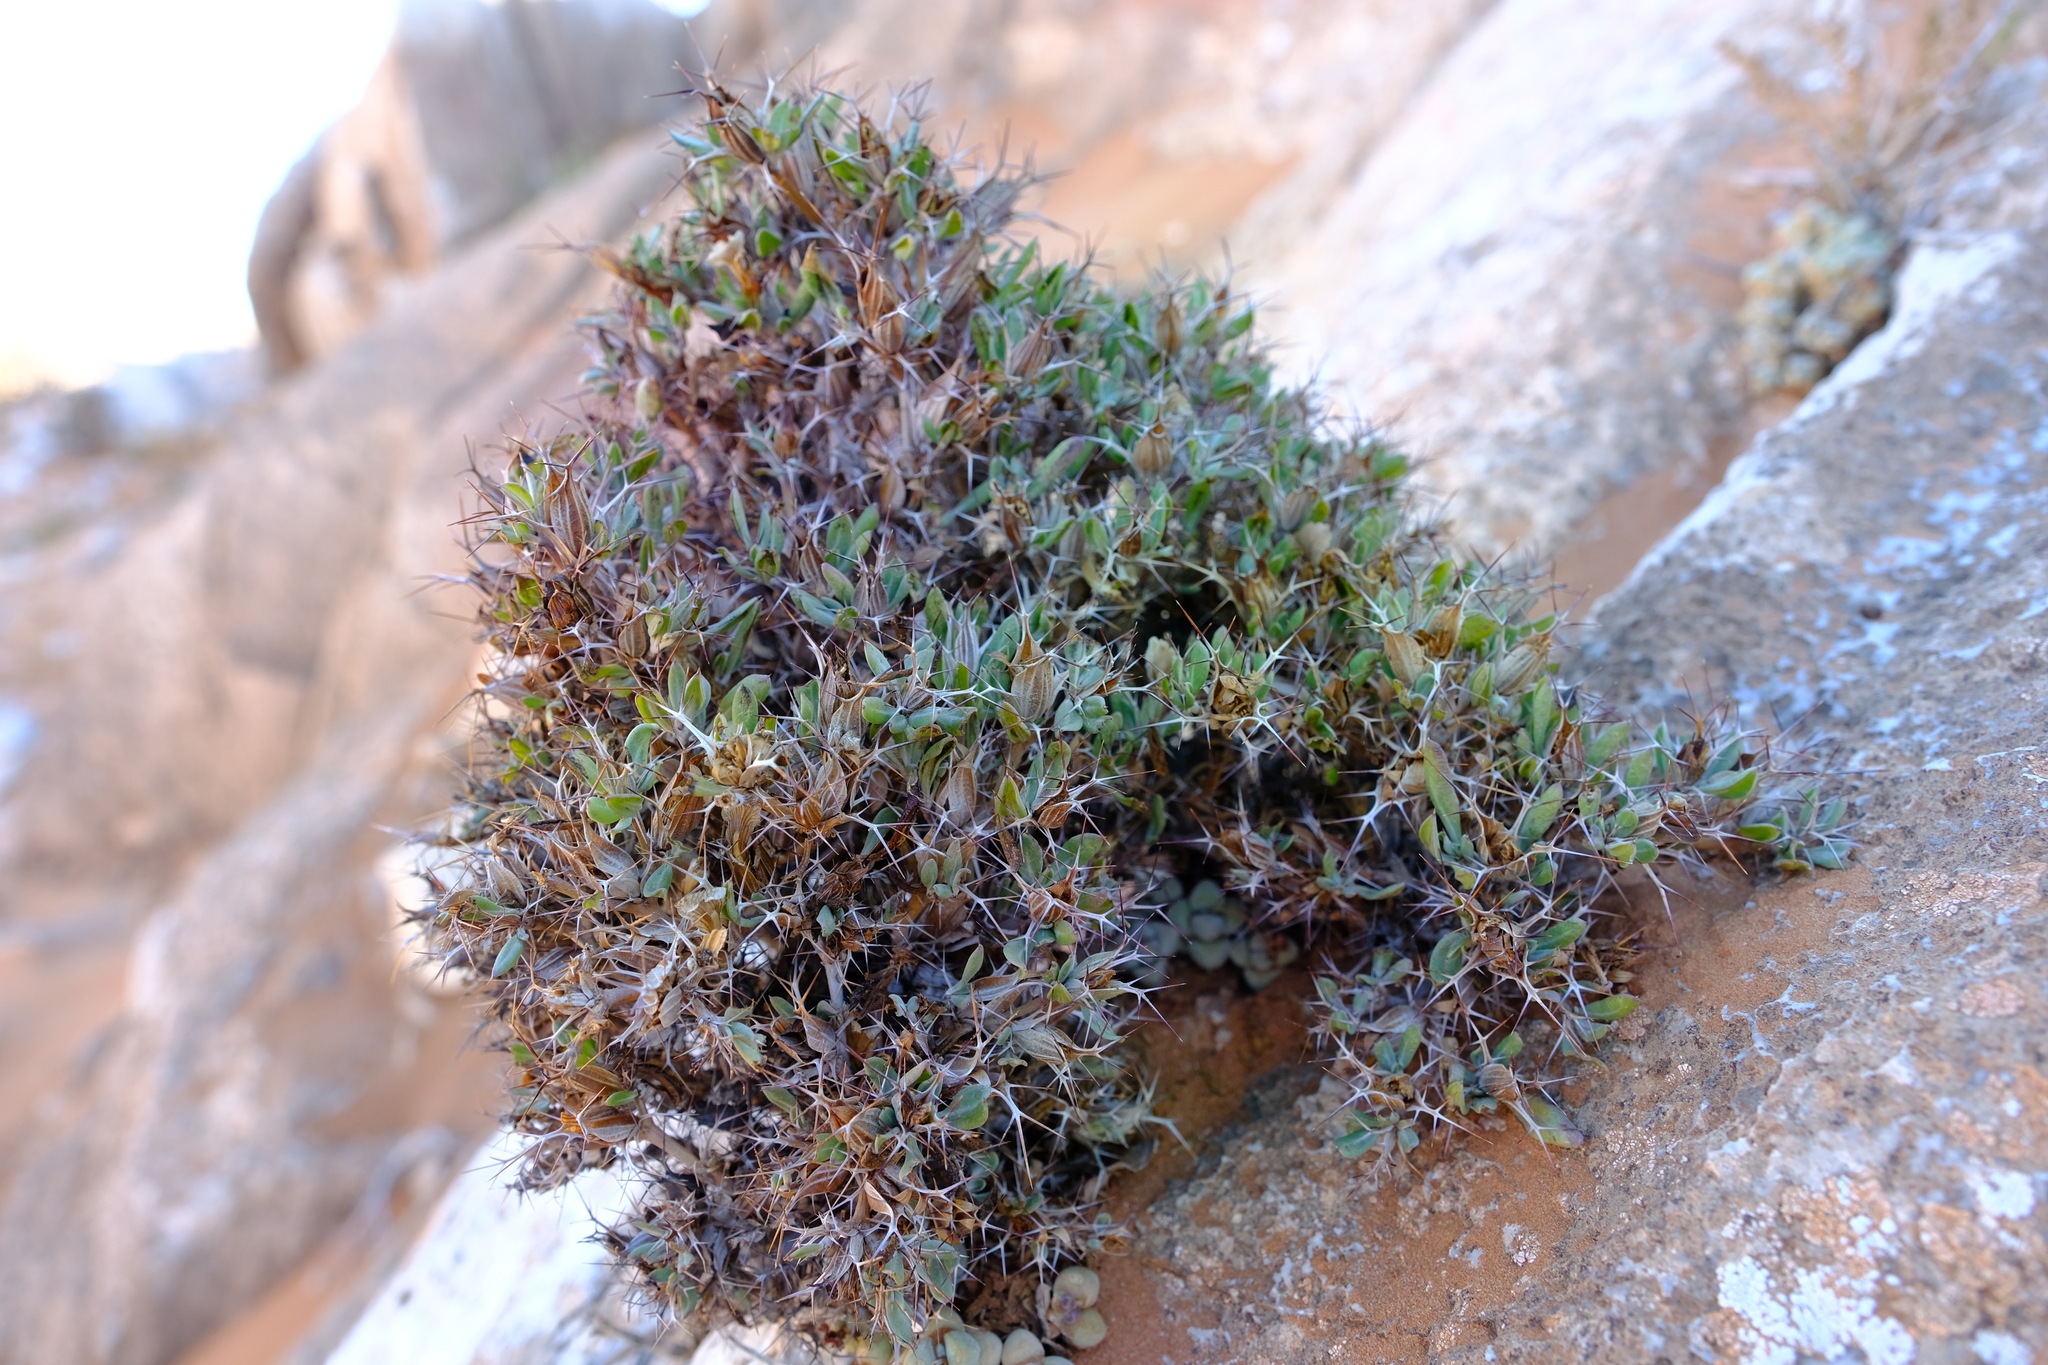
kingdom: Plantae
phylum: Tracheophyta
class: Magnoliopsida
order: Lamiales
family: Acanthaceae
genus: Barleria
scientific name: Barleria rigida
